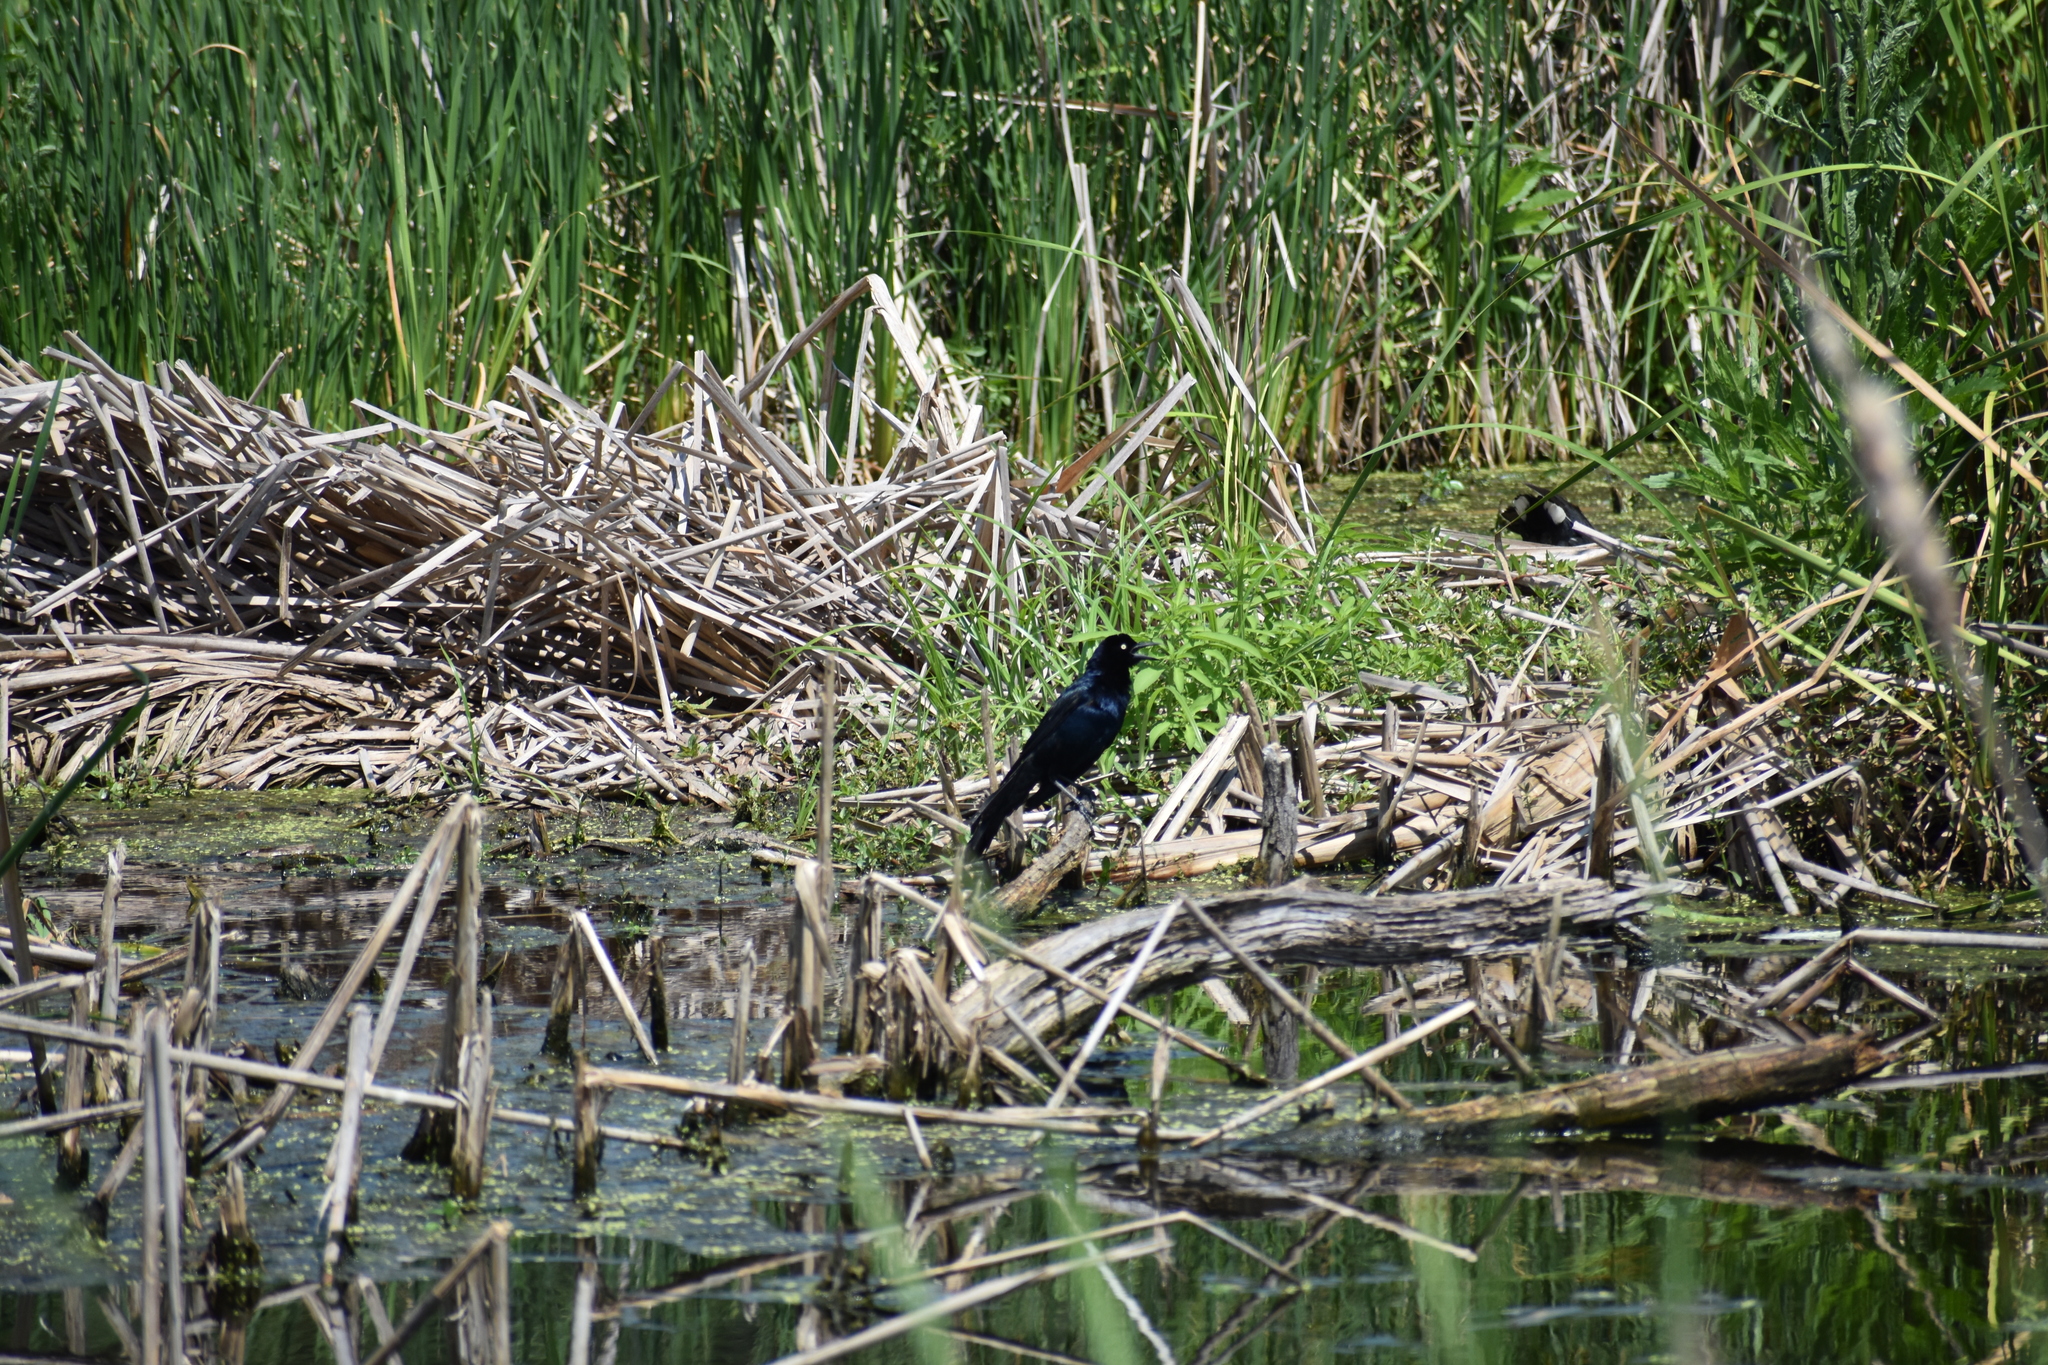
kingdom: Animalia
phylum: Chordata
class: Aves
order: Passeriformes
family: Icteridae
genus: Quiscalus
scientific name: Quiscalus major
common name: Boat-tailed grackle
